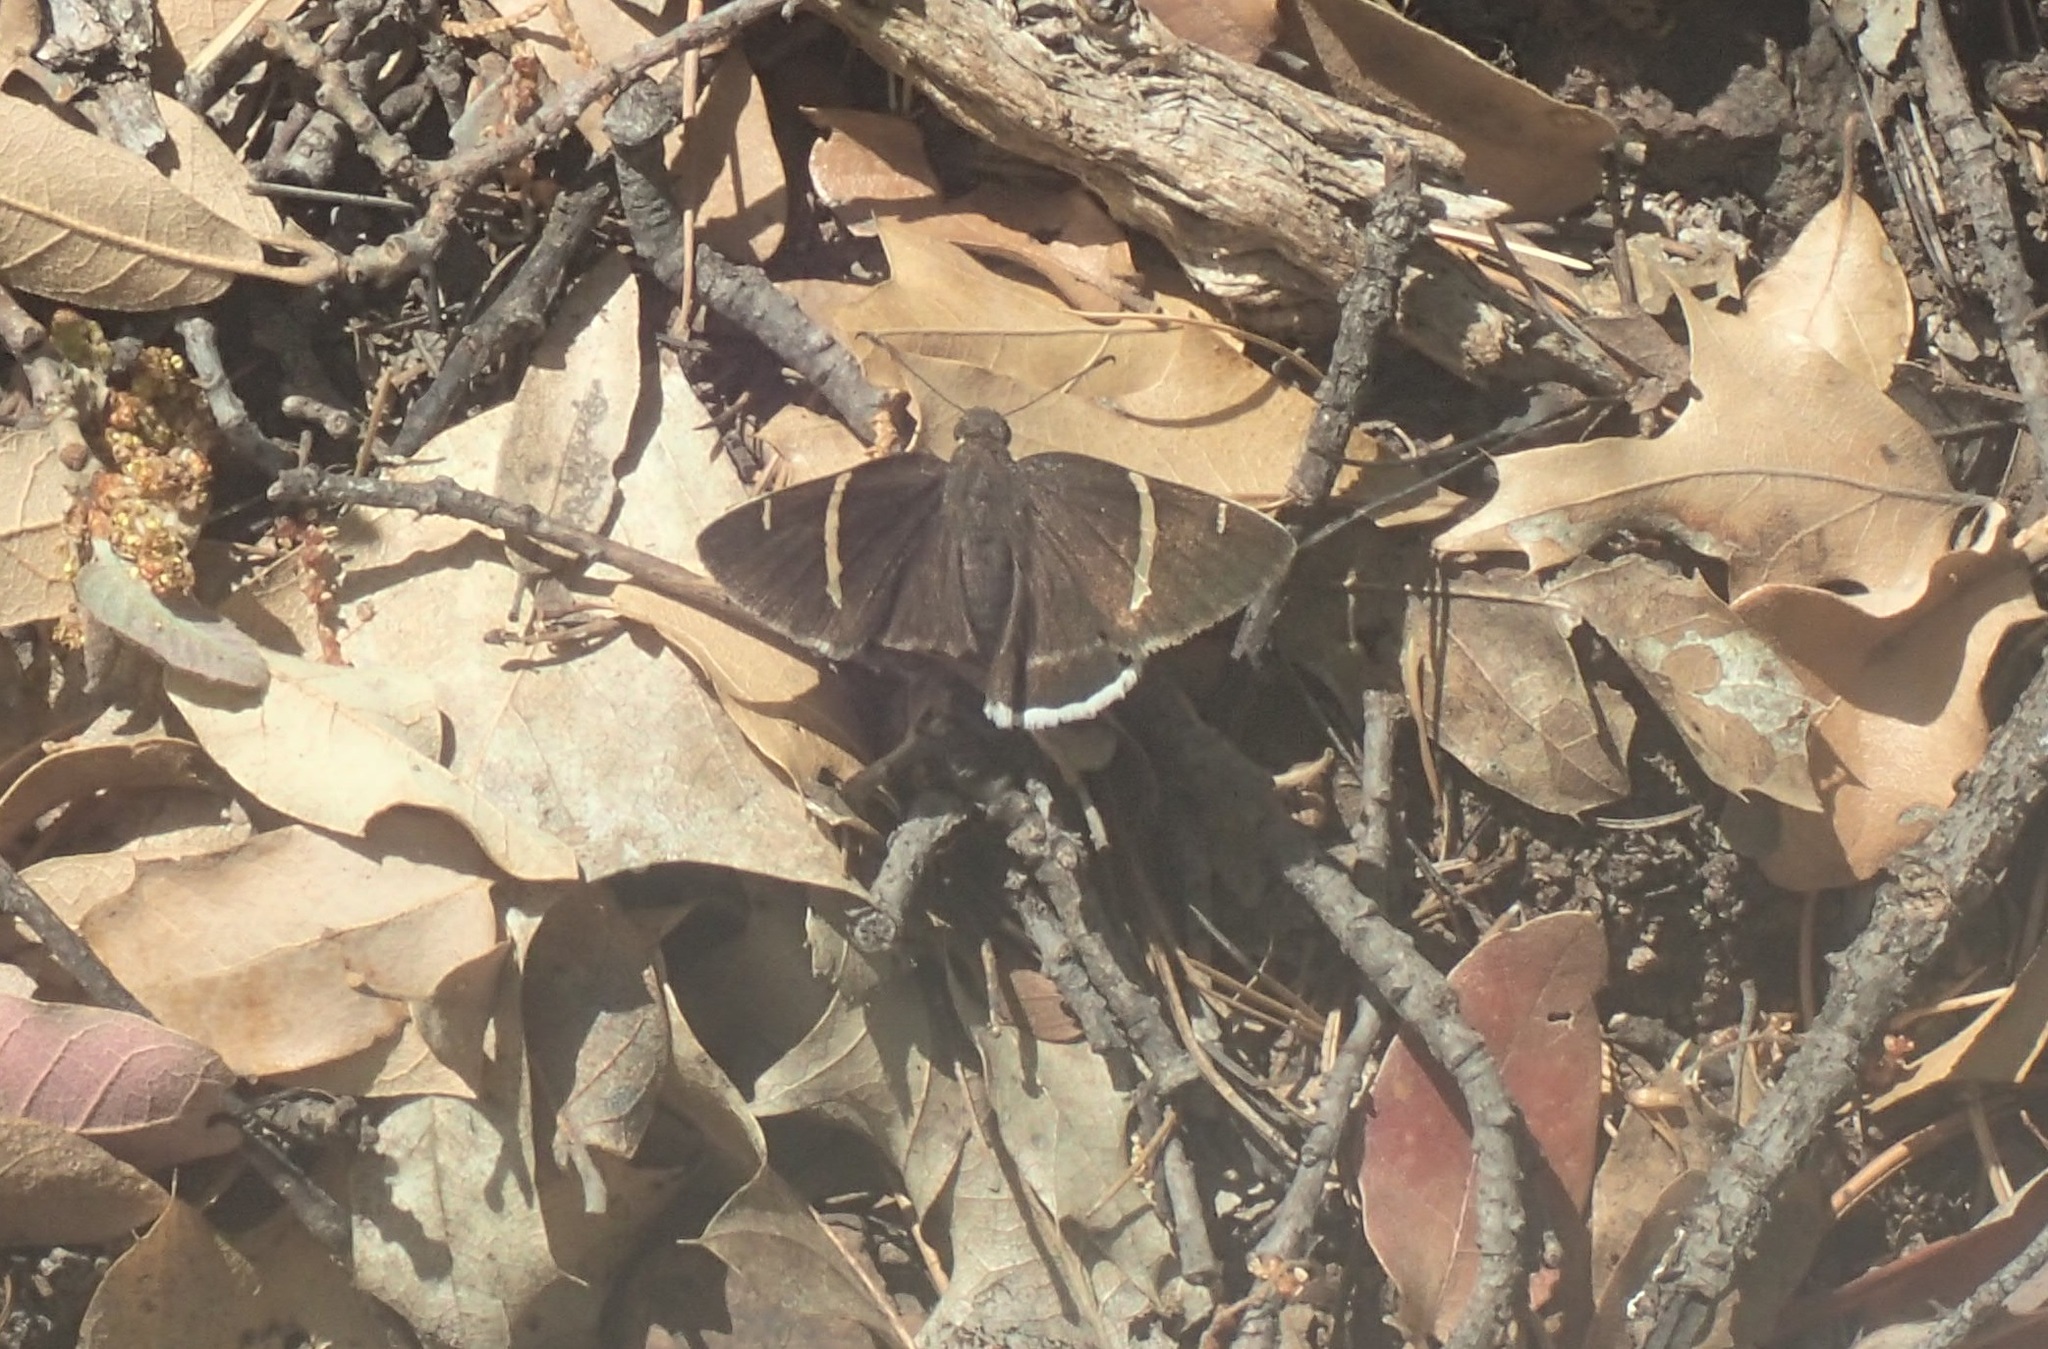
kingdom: Animalia
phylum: Arthropoda
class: Insecta
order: Lepidoptera
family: Hesperiidae
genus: Thorybes
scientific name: Thorybes cincta
